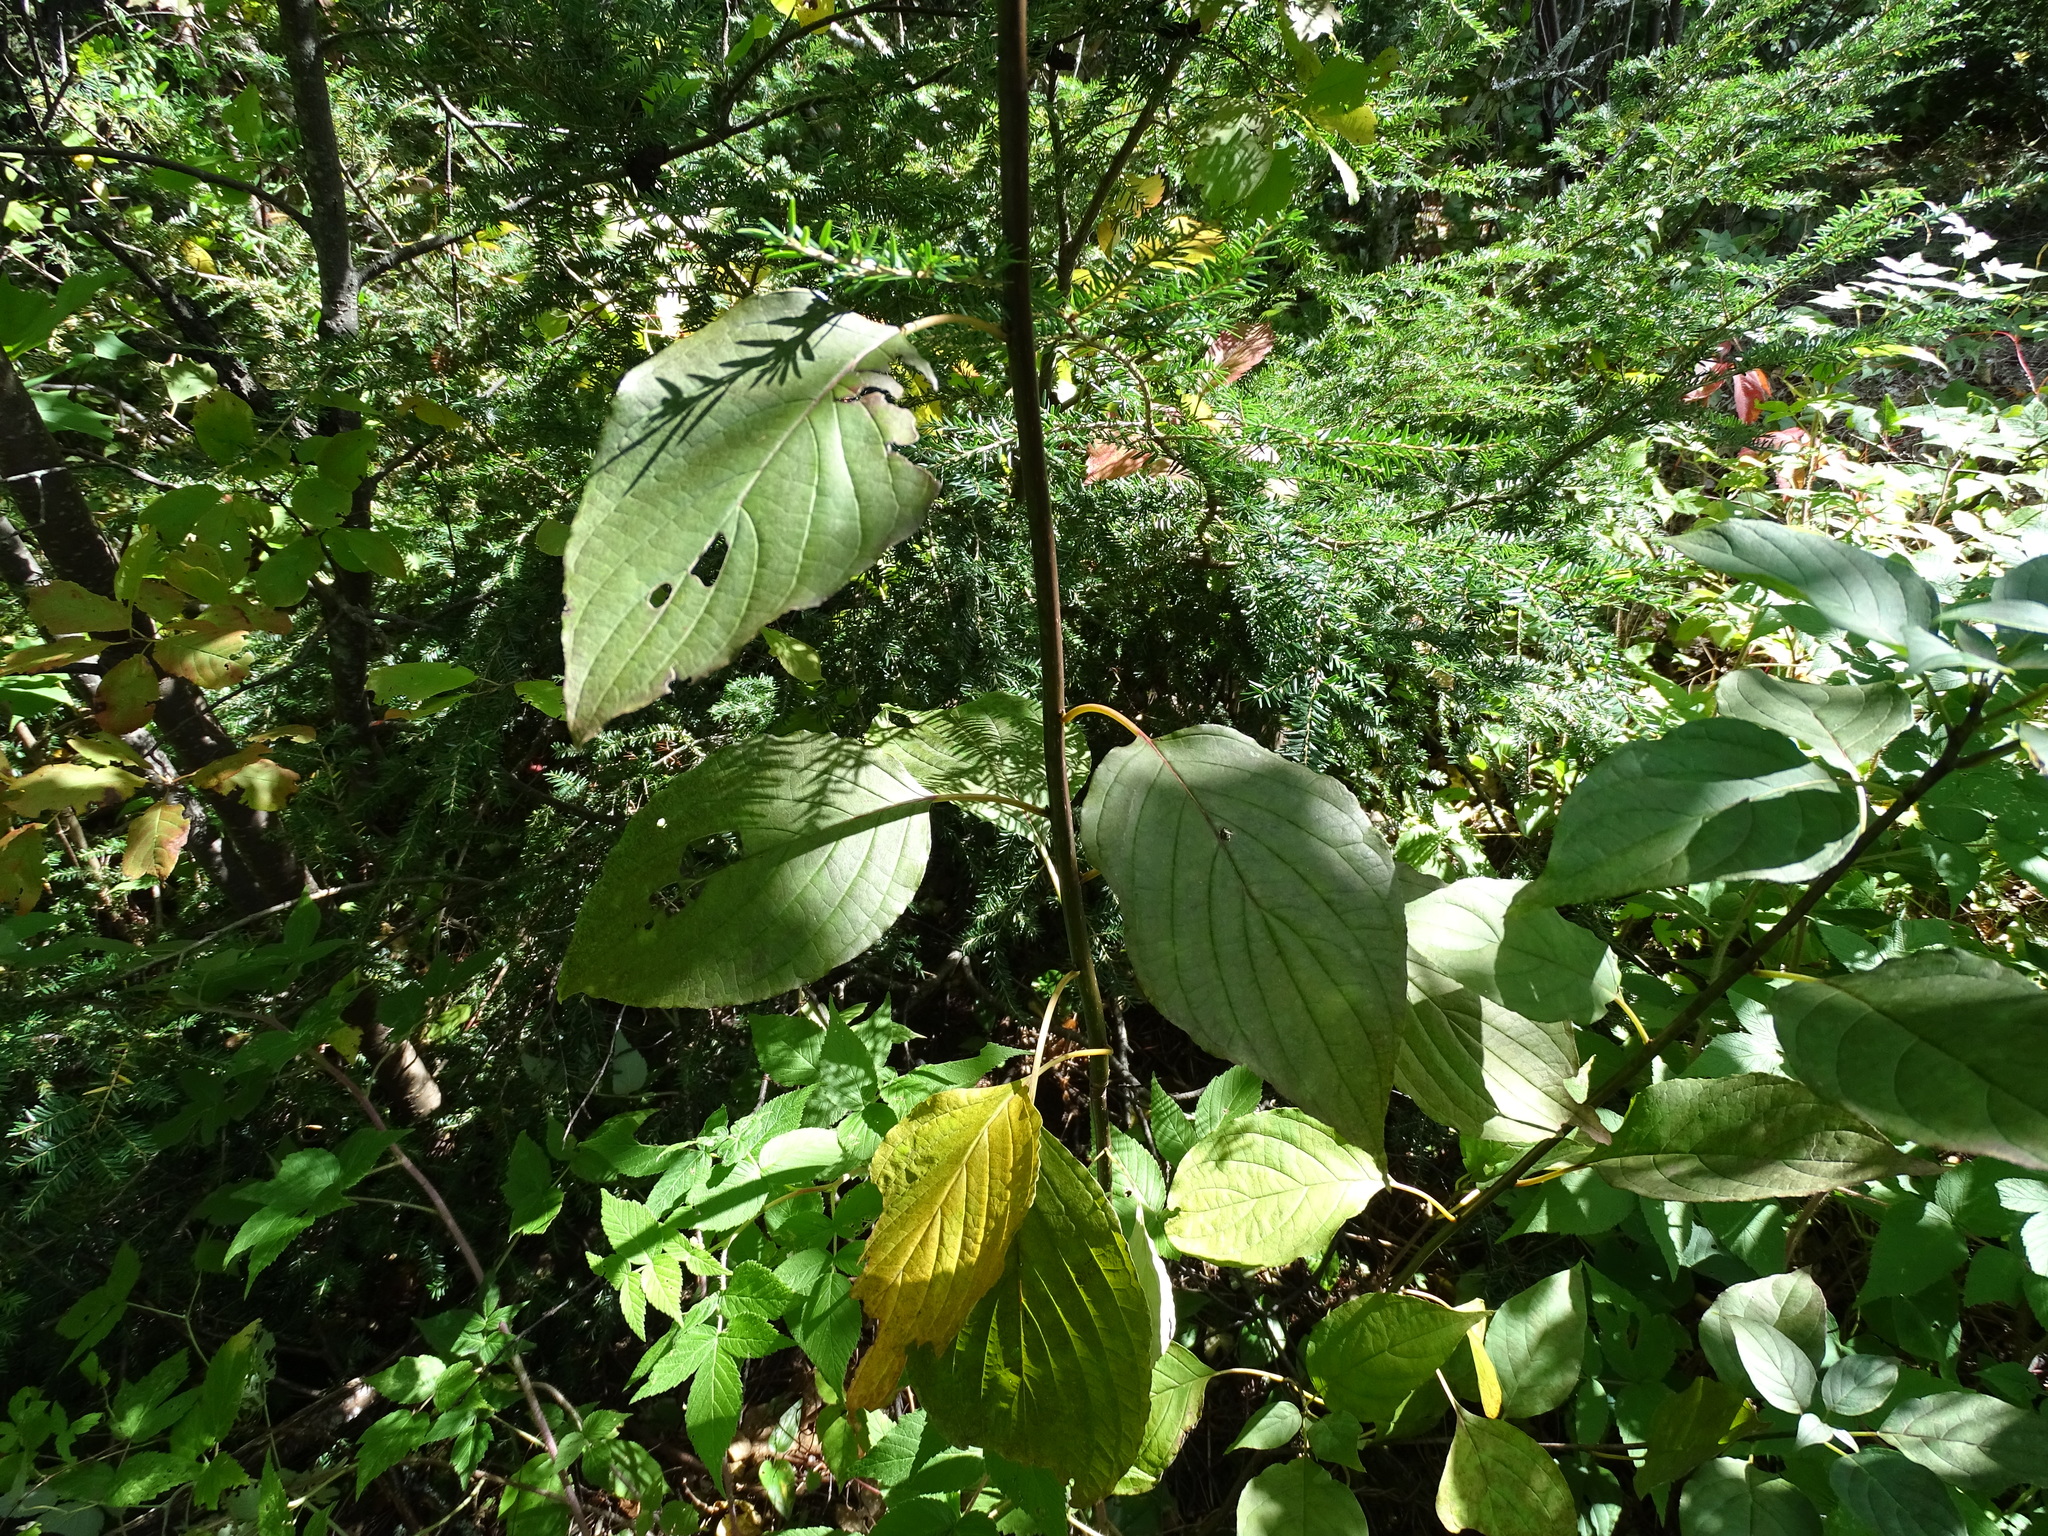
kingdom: Plantae
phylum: Tracheophyta
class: Magnoliopsida
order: Cornales
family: Cornaceae
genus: Cornus
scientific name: Cornus alternifolia
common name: Pagoda dogwood
